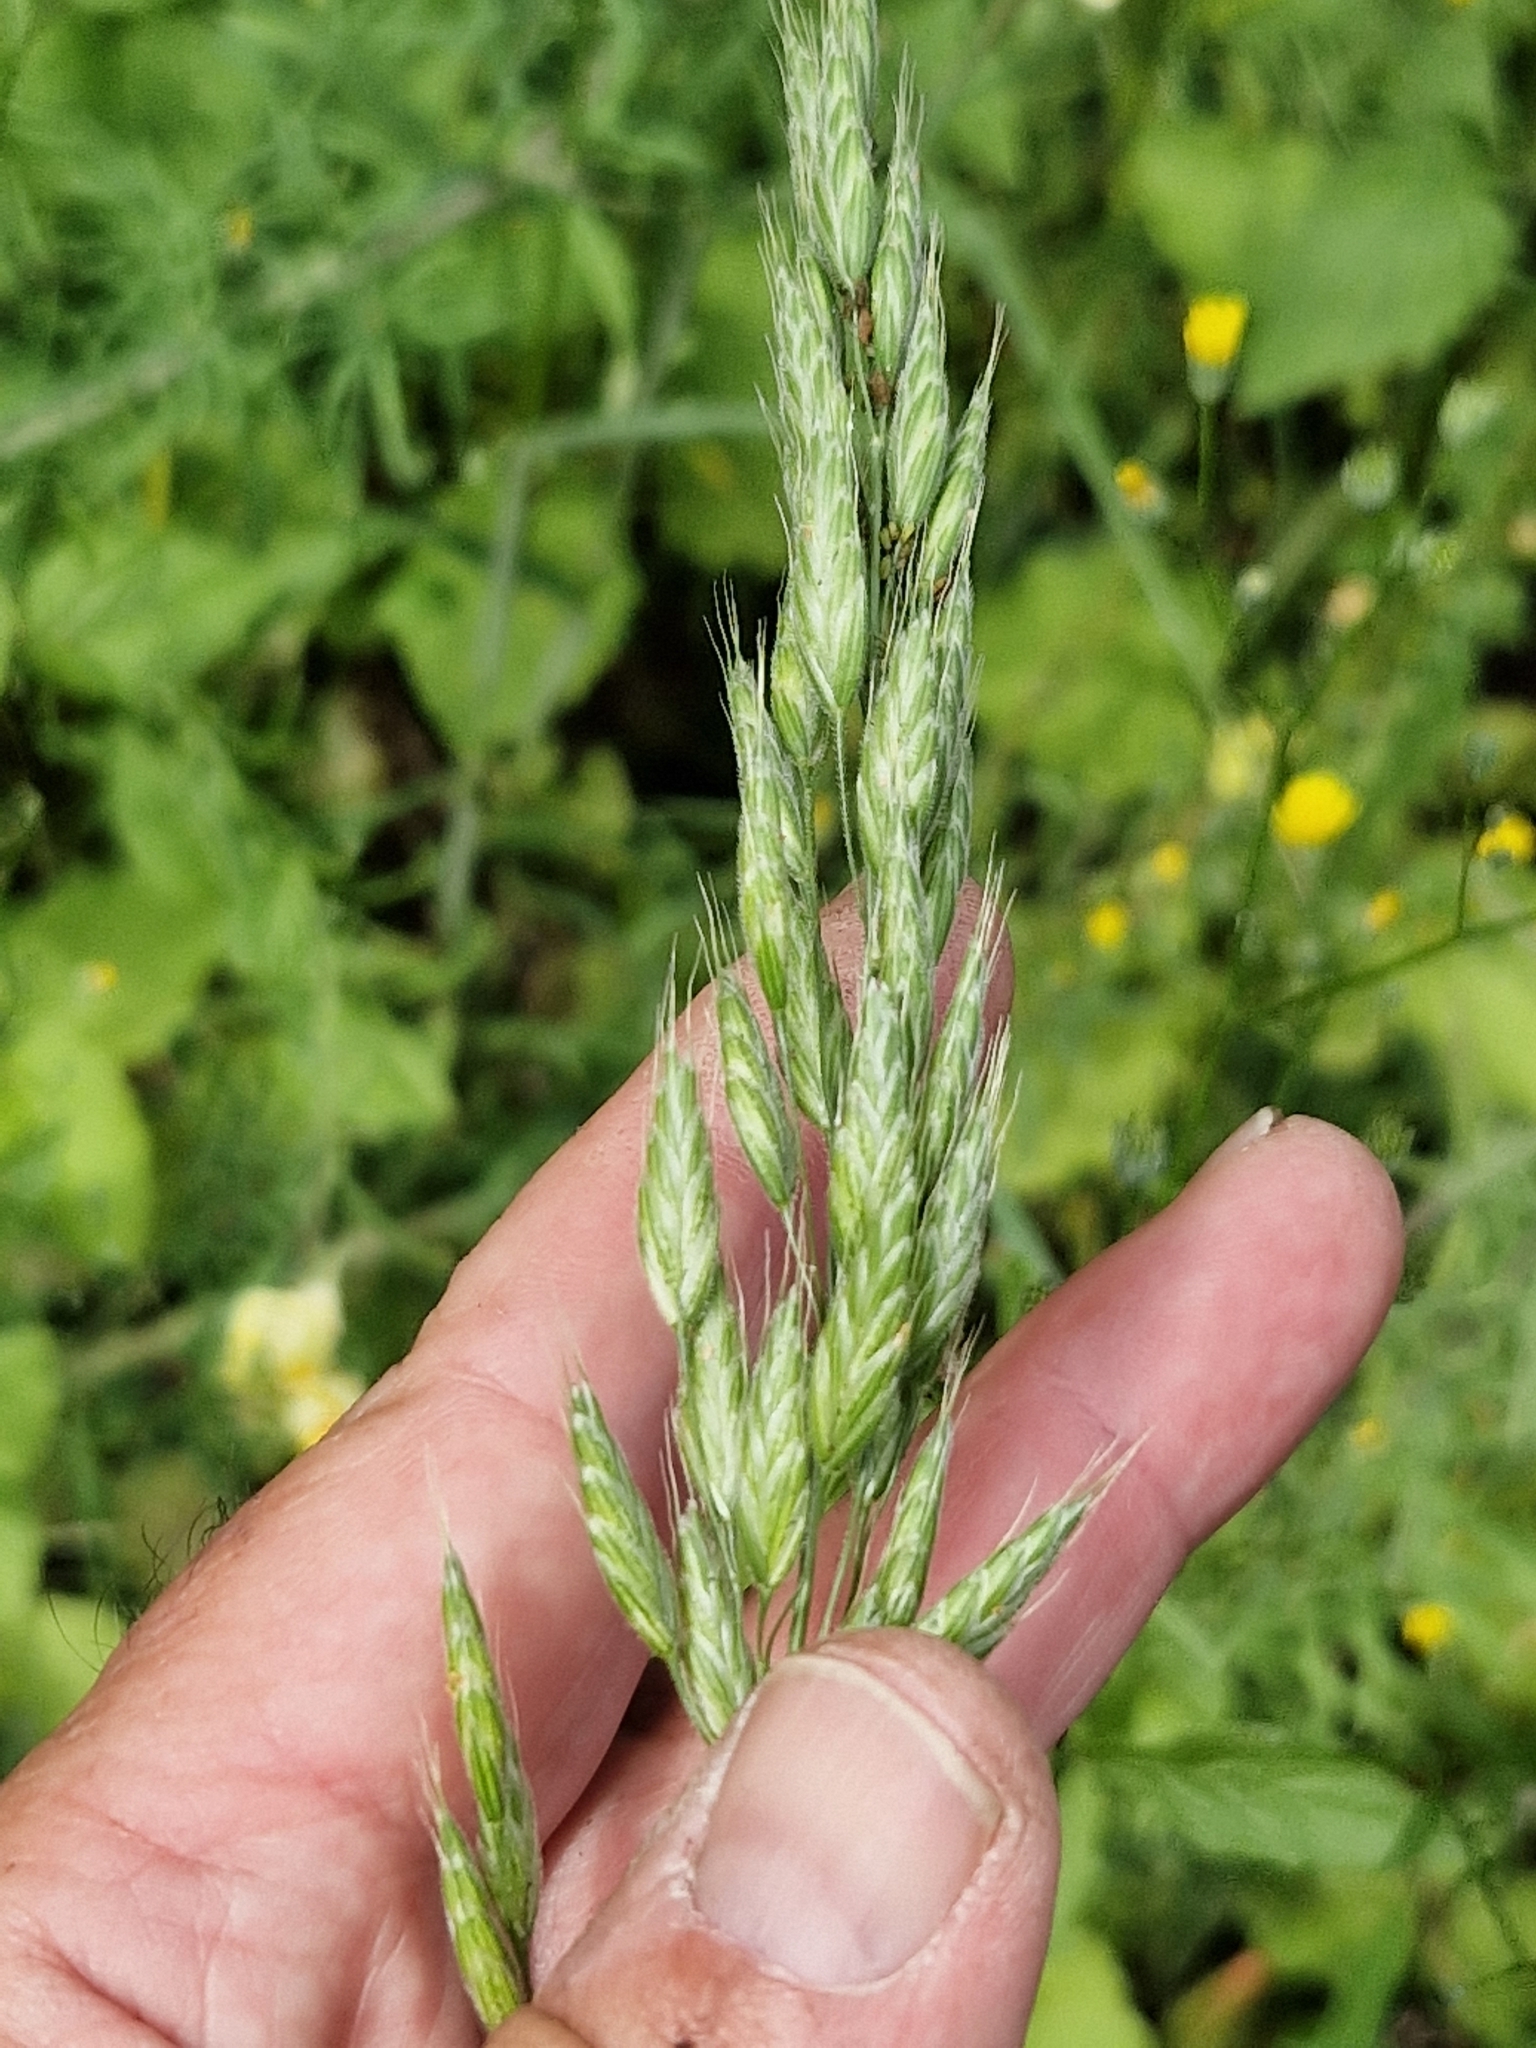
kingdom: Plantae
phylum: Tracheophyta
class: Liliopsida
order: Poales
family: Poaceae
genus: Bromus
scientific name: Bromus hordeaceus
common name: Soft brome
